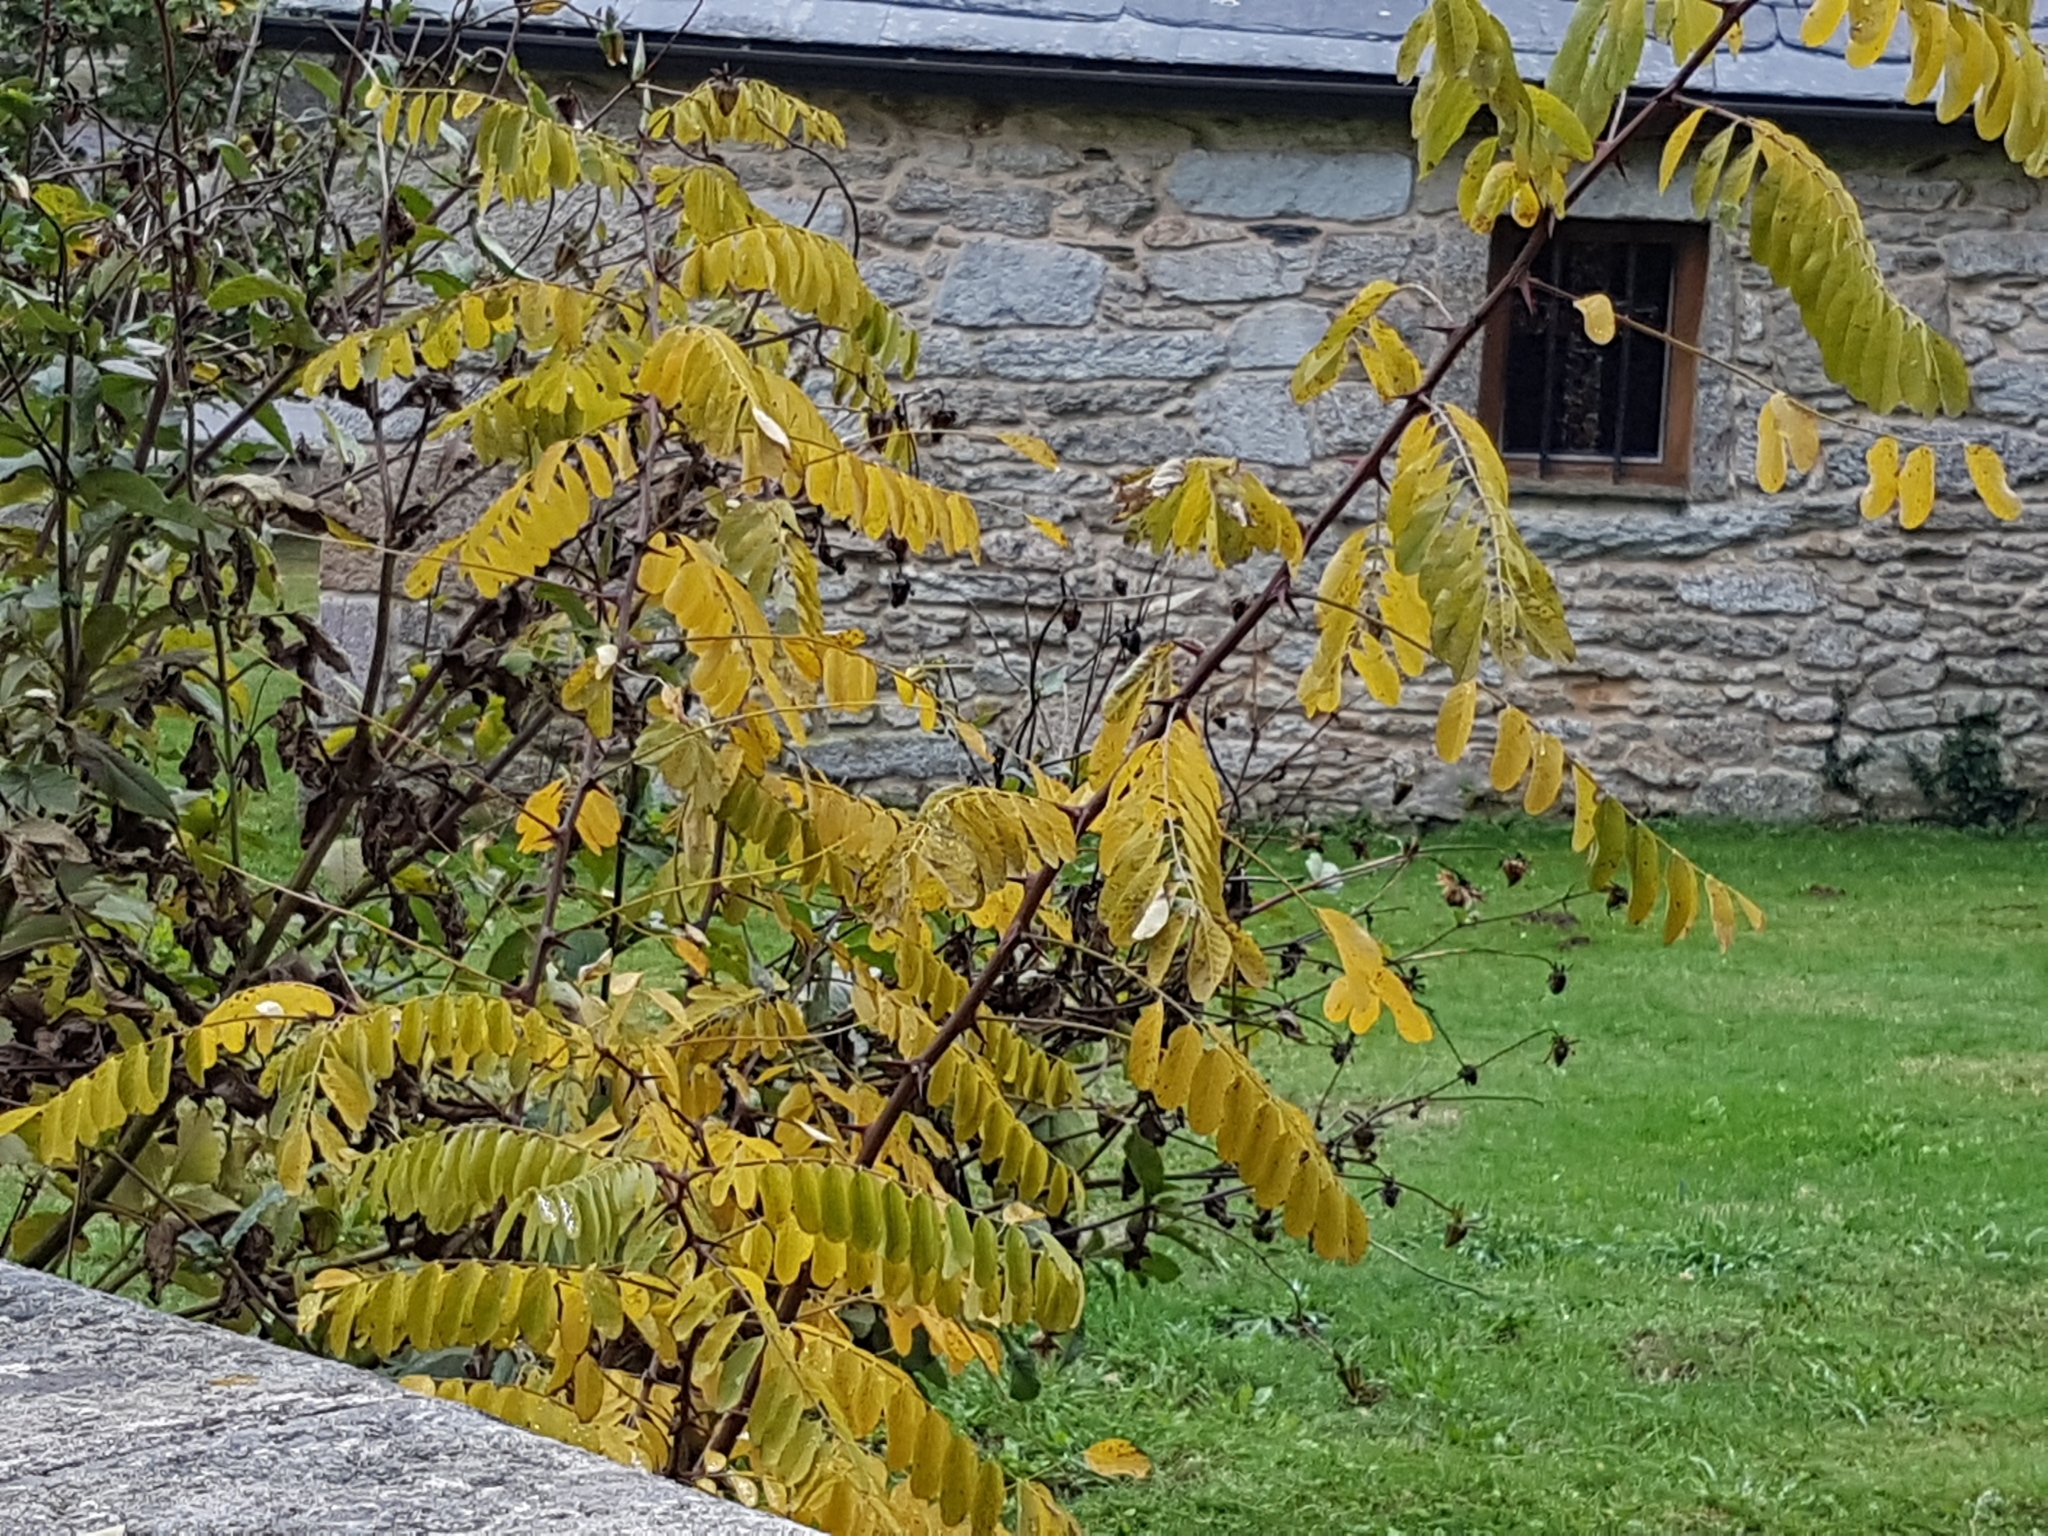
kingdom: Plantae
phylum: Tracheophyta
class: Magnoliopsida
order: Fabales
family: Fabaceae
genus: Robinia
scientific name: Robinia pseudoacacia
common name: Black locust
